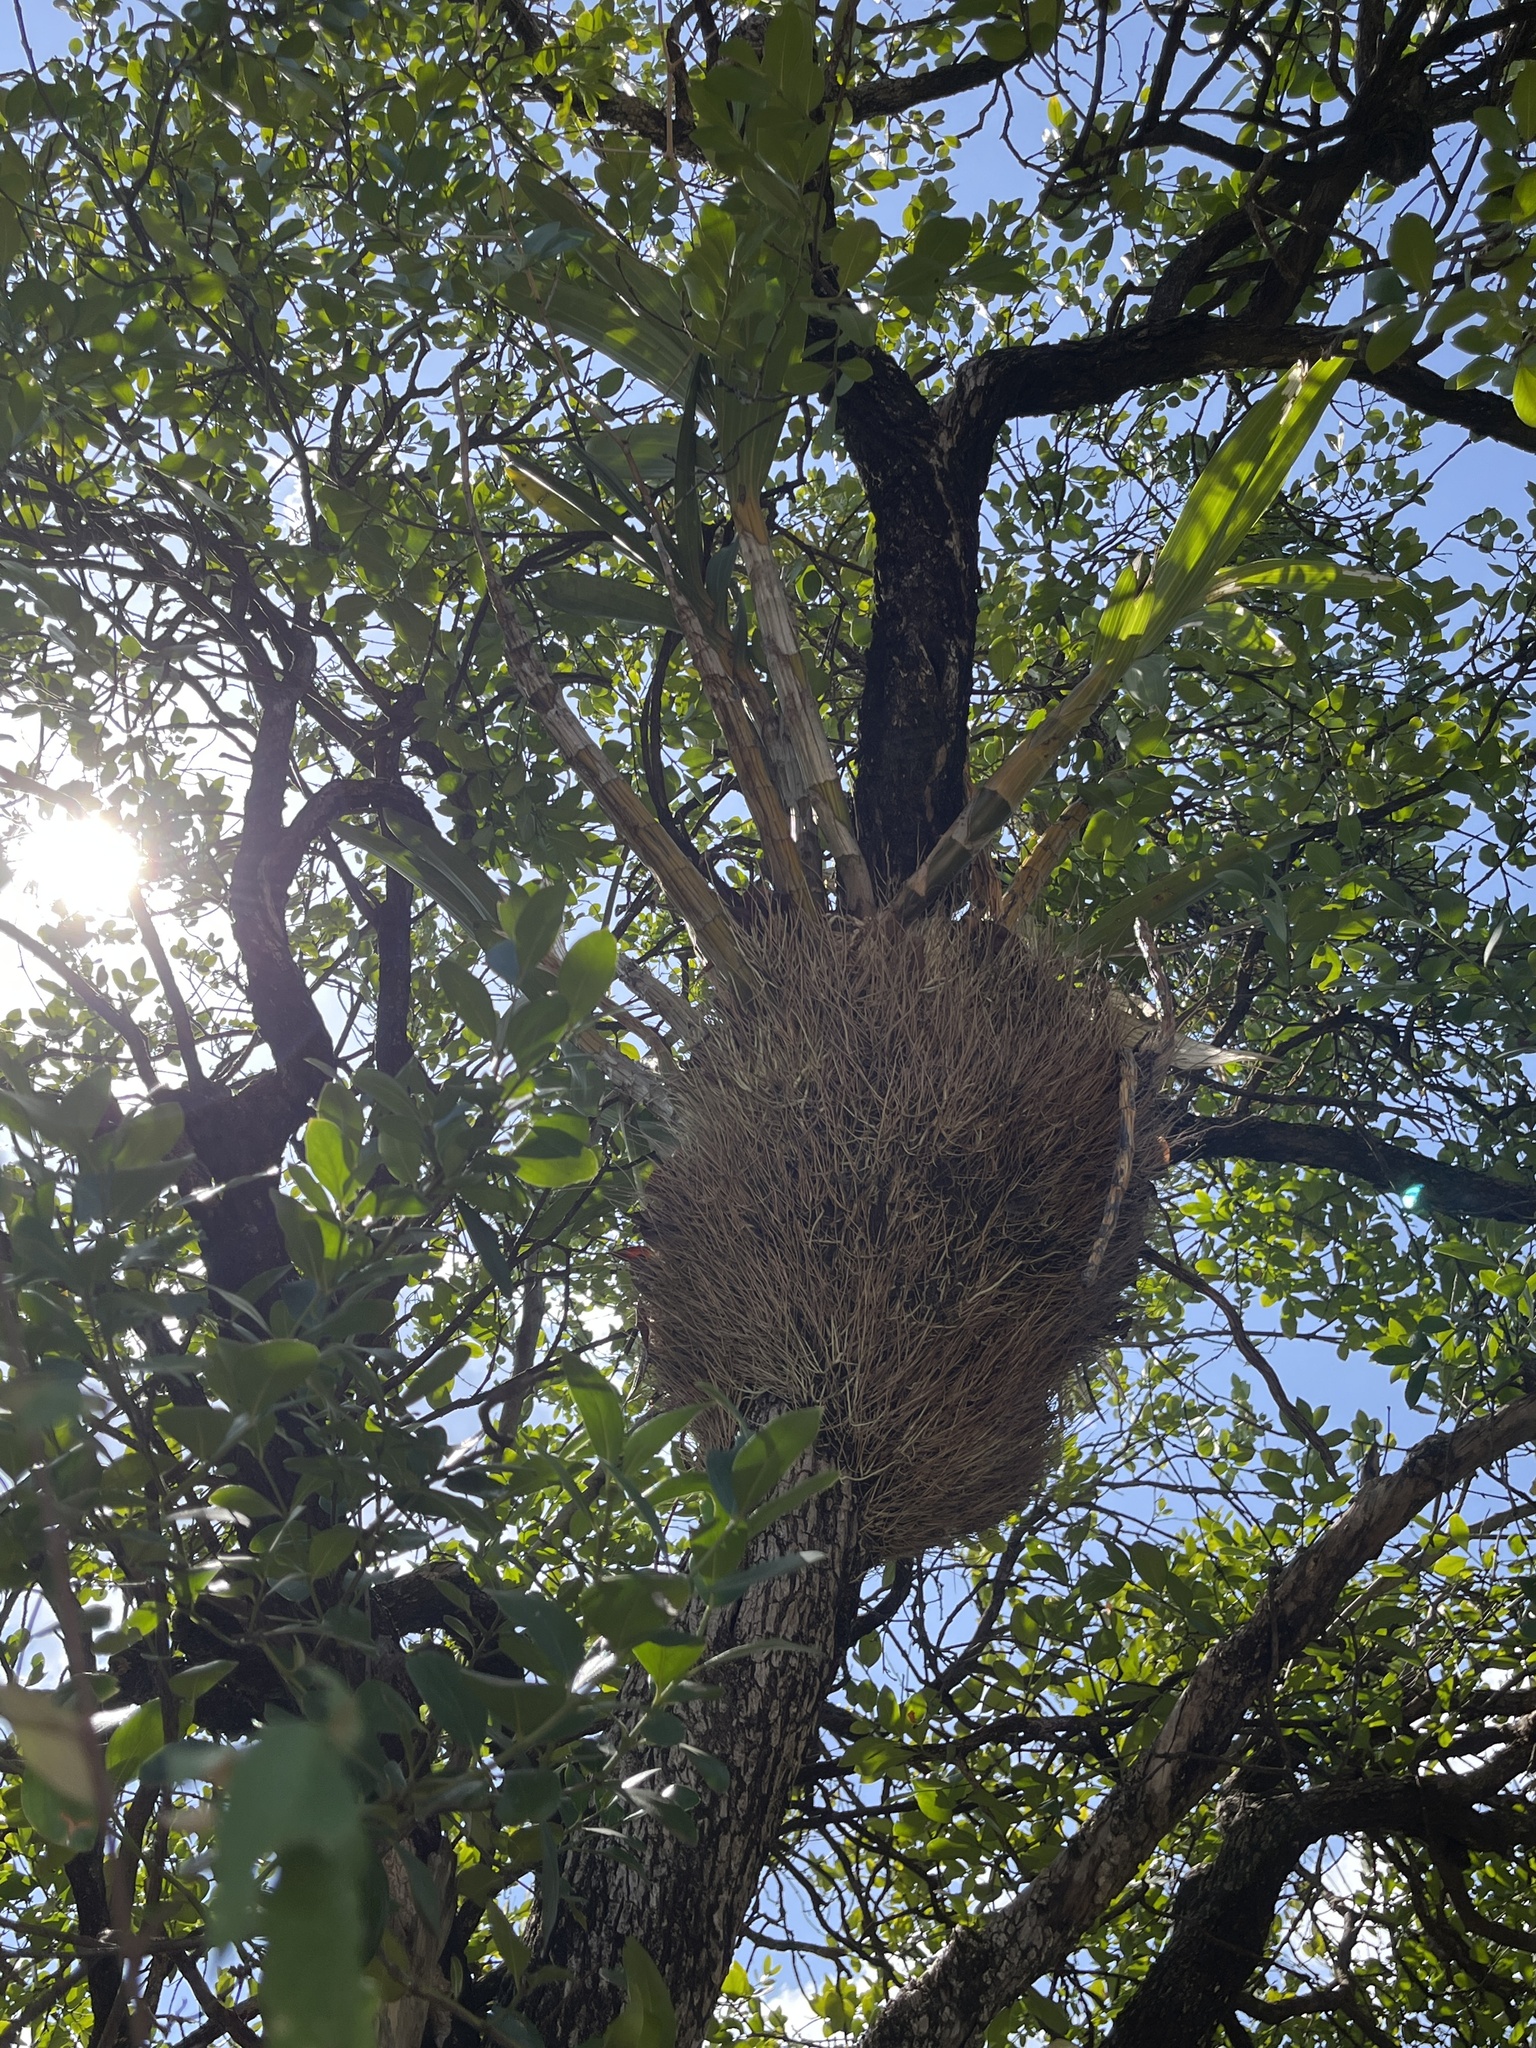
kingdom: Plantae
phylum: Tracheophyta
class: Liliopsida
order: Asparagales
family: Orchidaceae
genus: Ansellia
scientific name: Ansellia africana
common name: African ansellia
